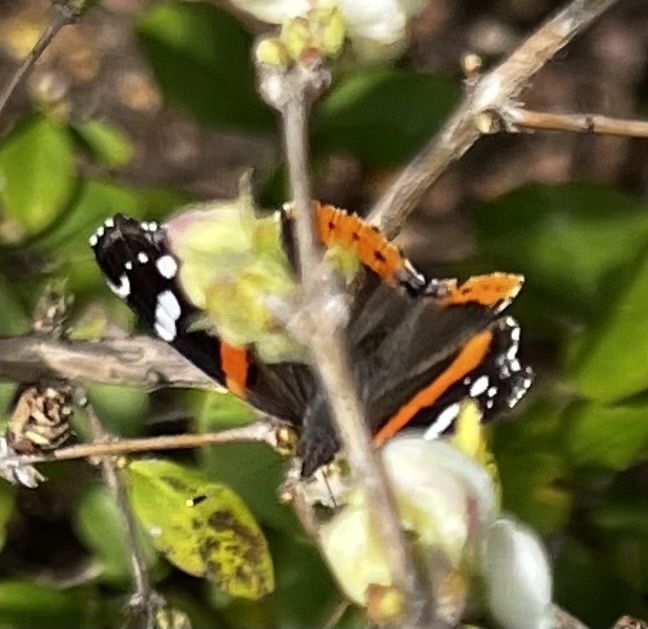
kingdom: Animalia
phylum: Arthropoda
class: Insecta
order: Lepidoptera
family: Nymphalidae
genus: Vanessa
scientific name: Vanessa atalanta
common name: Red admiral
